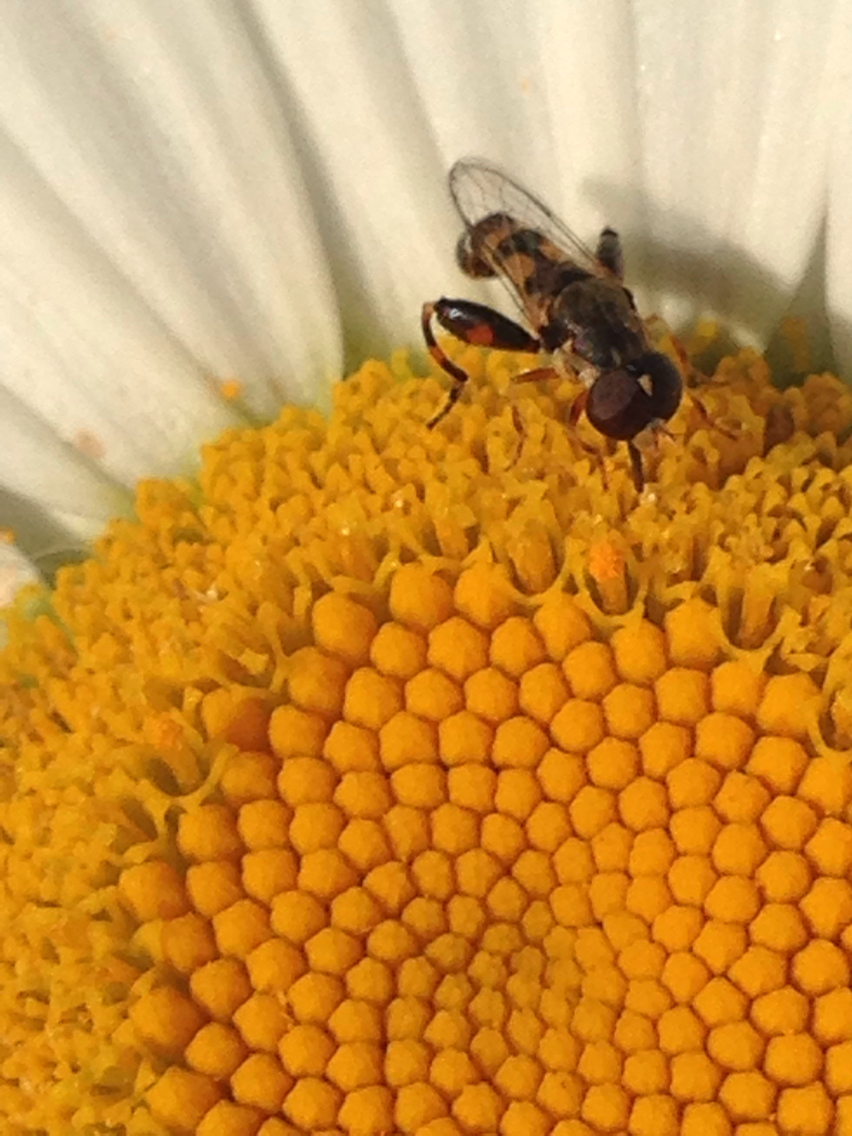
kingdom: Animalia
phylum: Arthropoda
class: Insecta
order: Diptera
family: Syrphidae
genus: Syritta
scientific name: Syritta pipiens
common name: Hover fly
